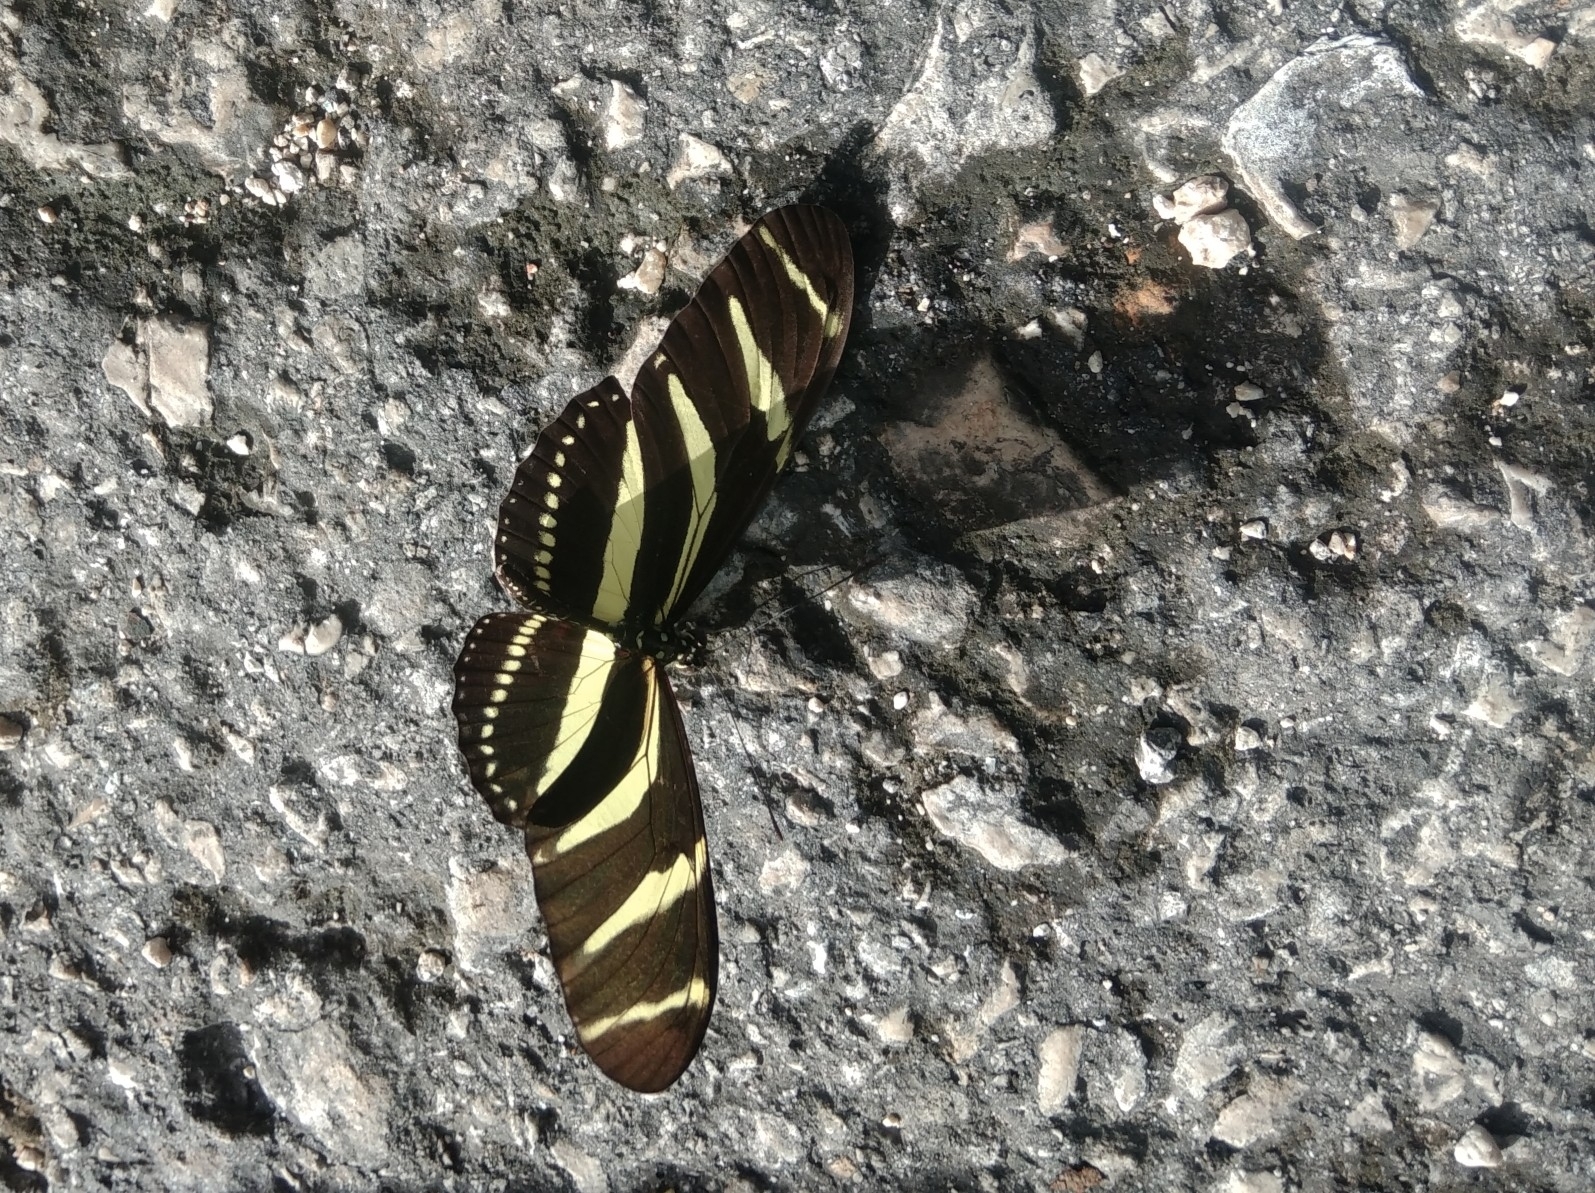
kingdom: Animalia
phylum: Arthropoda
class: Insecta
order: Lepidoptera
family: Nymphalidae
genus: Heliconius
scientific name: Heliconius charithonia
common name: Zebra long wing
